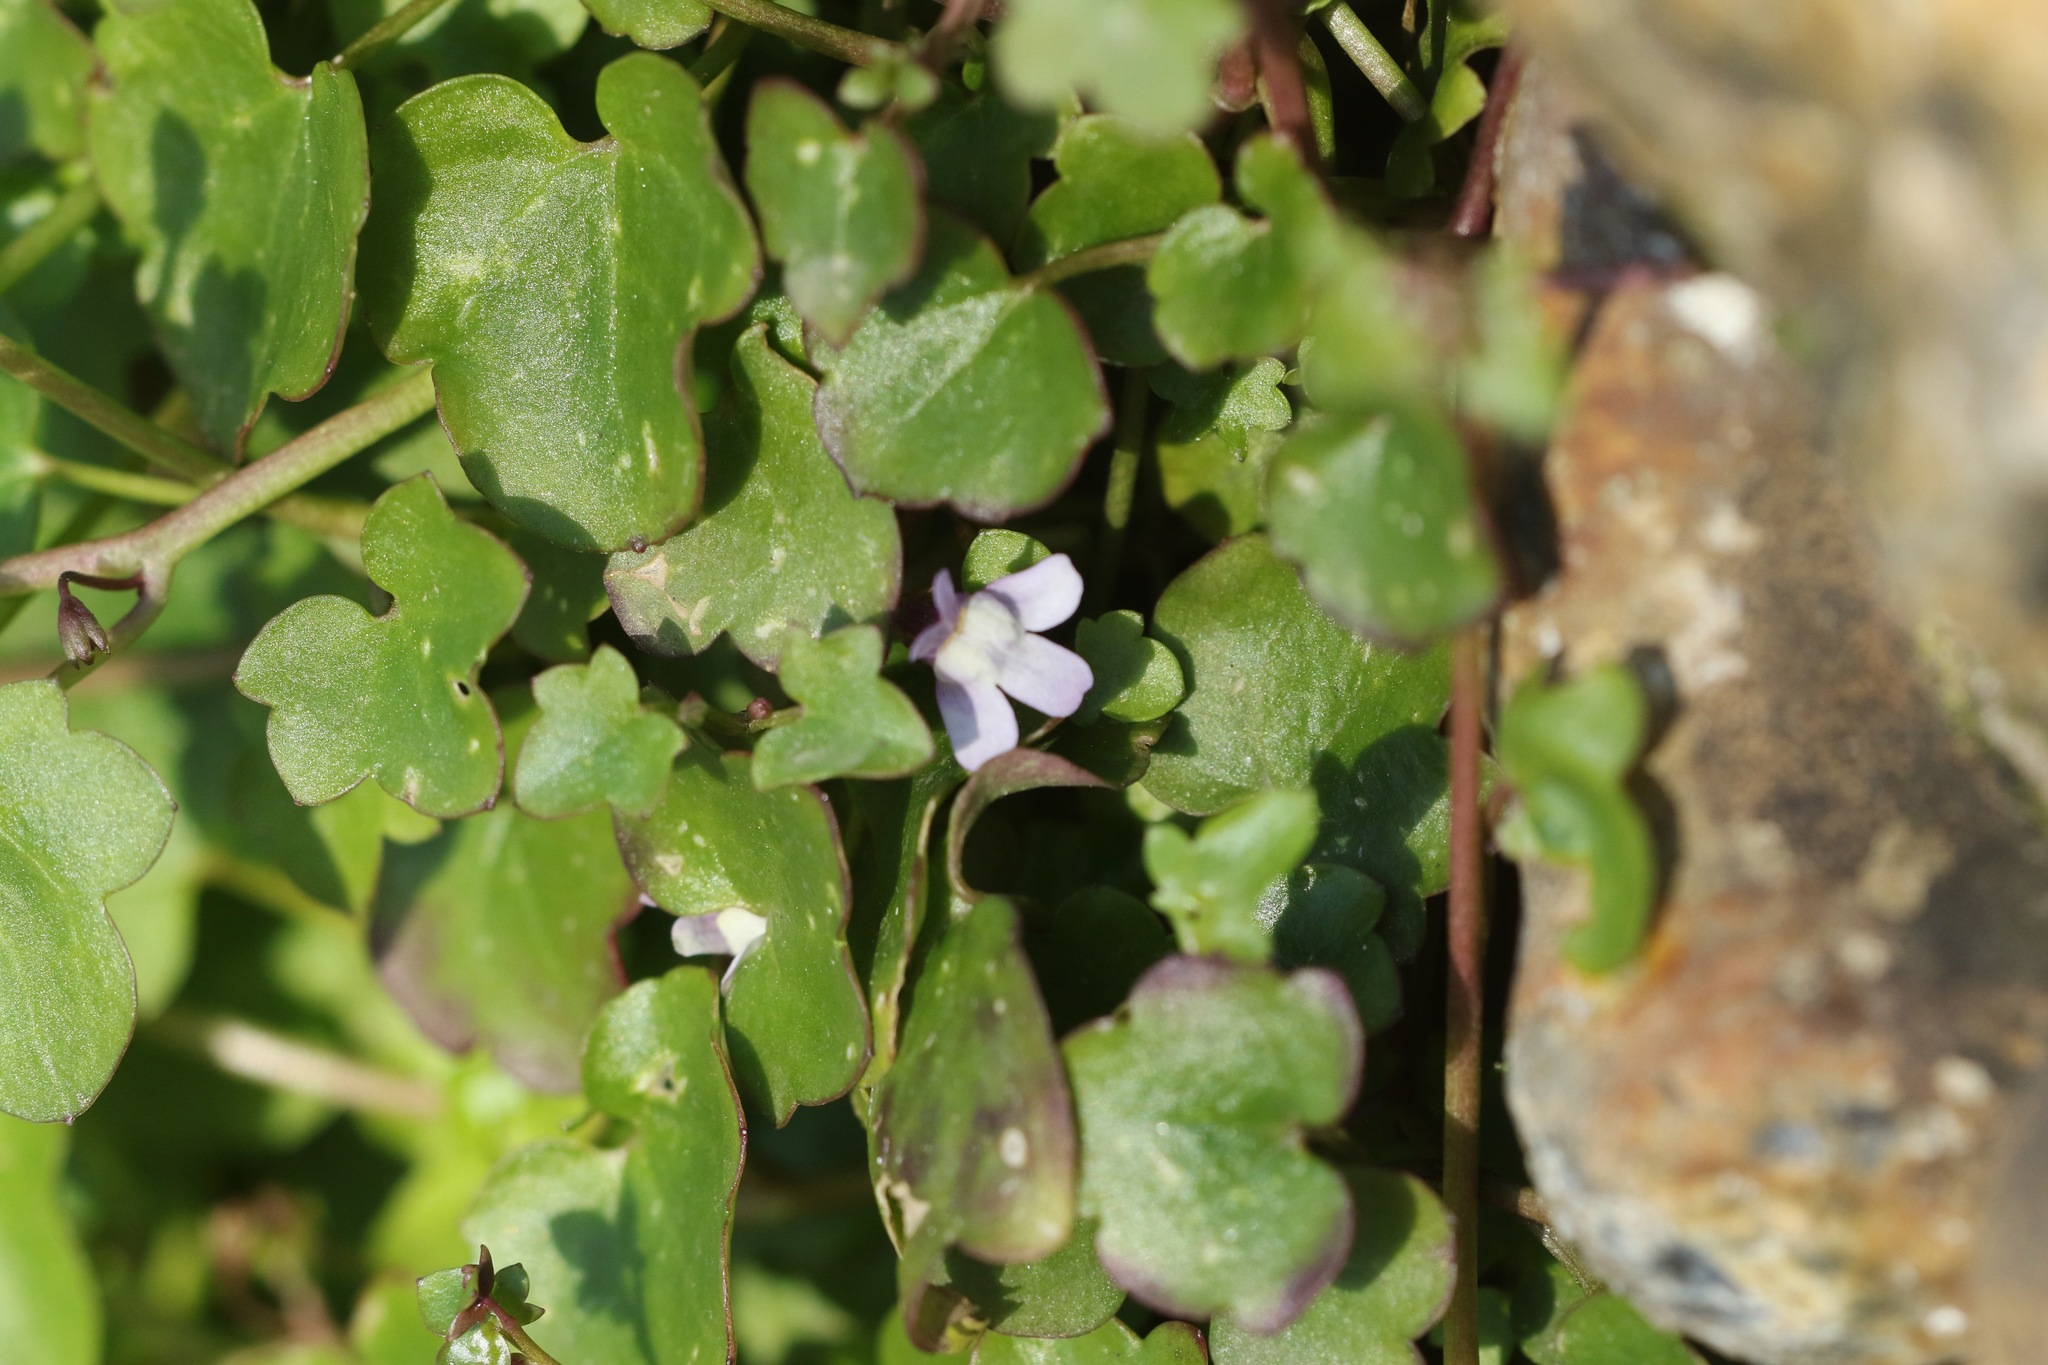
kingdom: Plantae
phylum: Tracheophyta
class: Magnoliopsida
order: Lamiales
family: Plantaginaceae
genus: Cymbalaria
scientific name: Cymbalaria muralis
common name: Ivy-leaved toadflax
